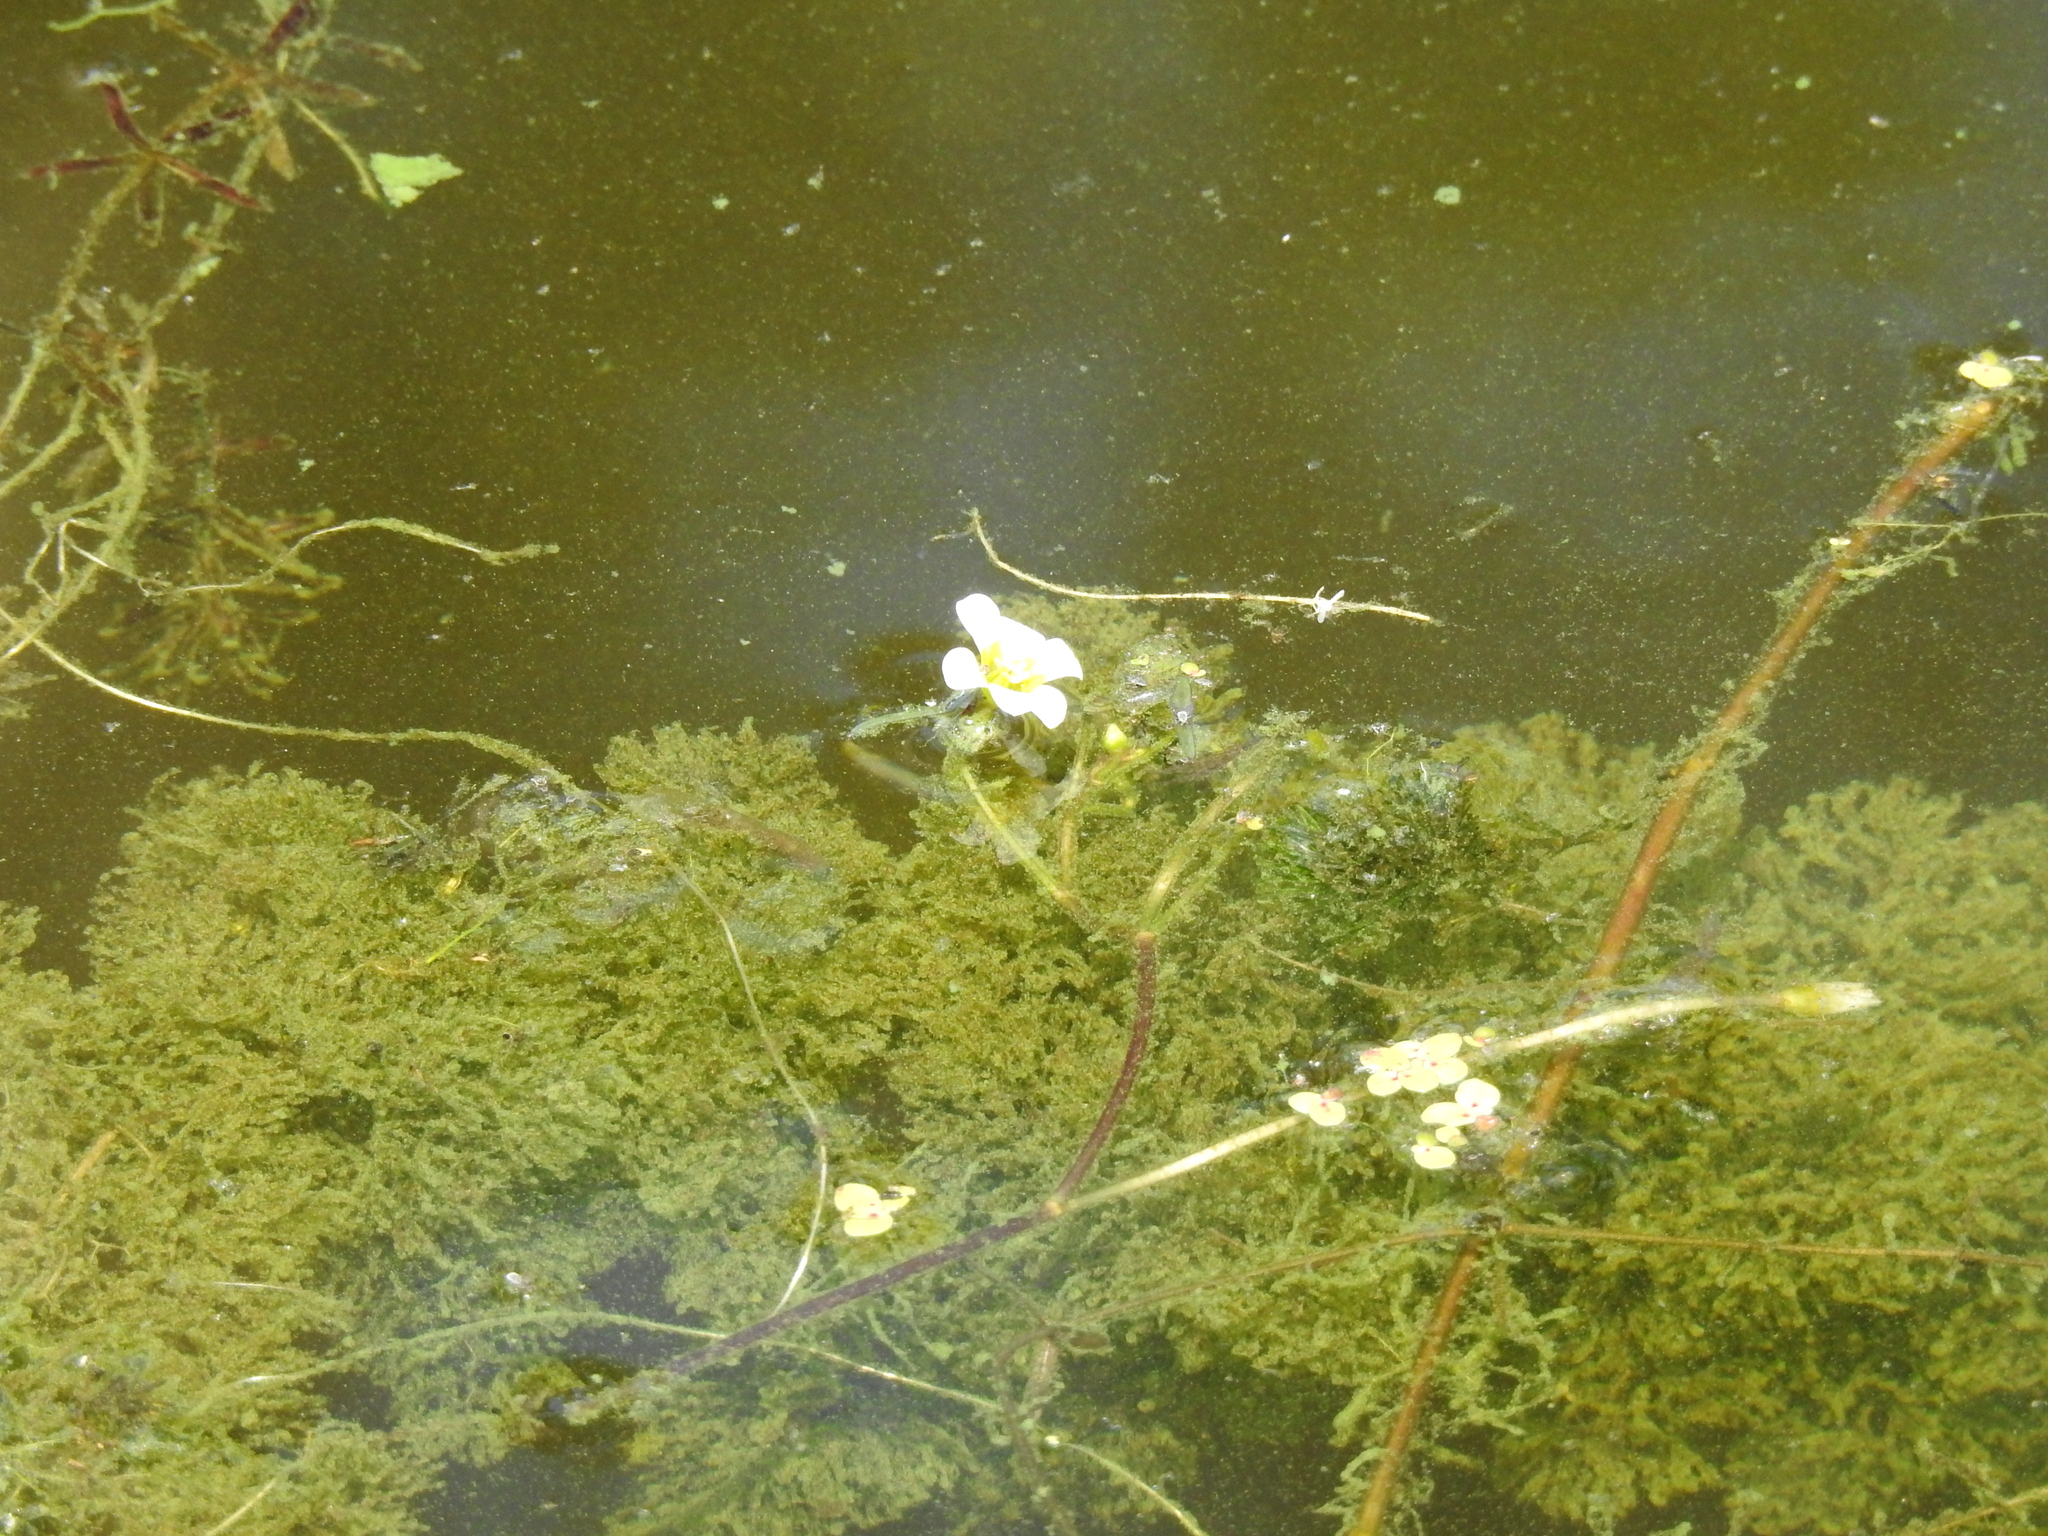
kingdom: Plantae
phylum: Tracheophyta
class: Magnoliopsida
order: Nymphaeales
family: Cabombaceae
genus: Cabomba
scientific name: Cabomba caroliniana
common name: Fanwort
